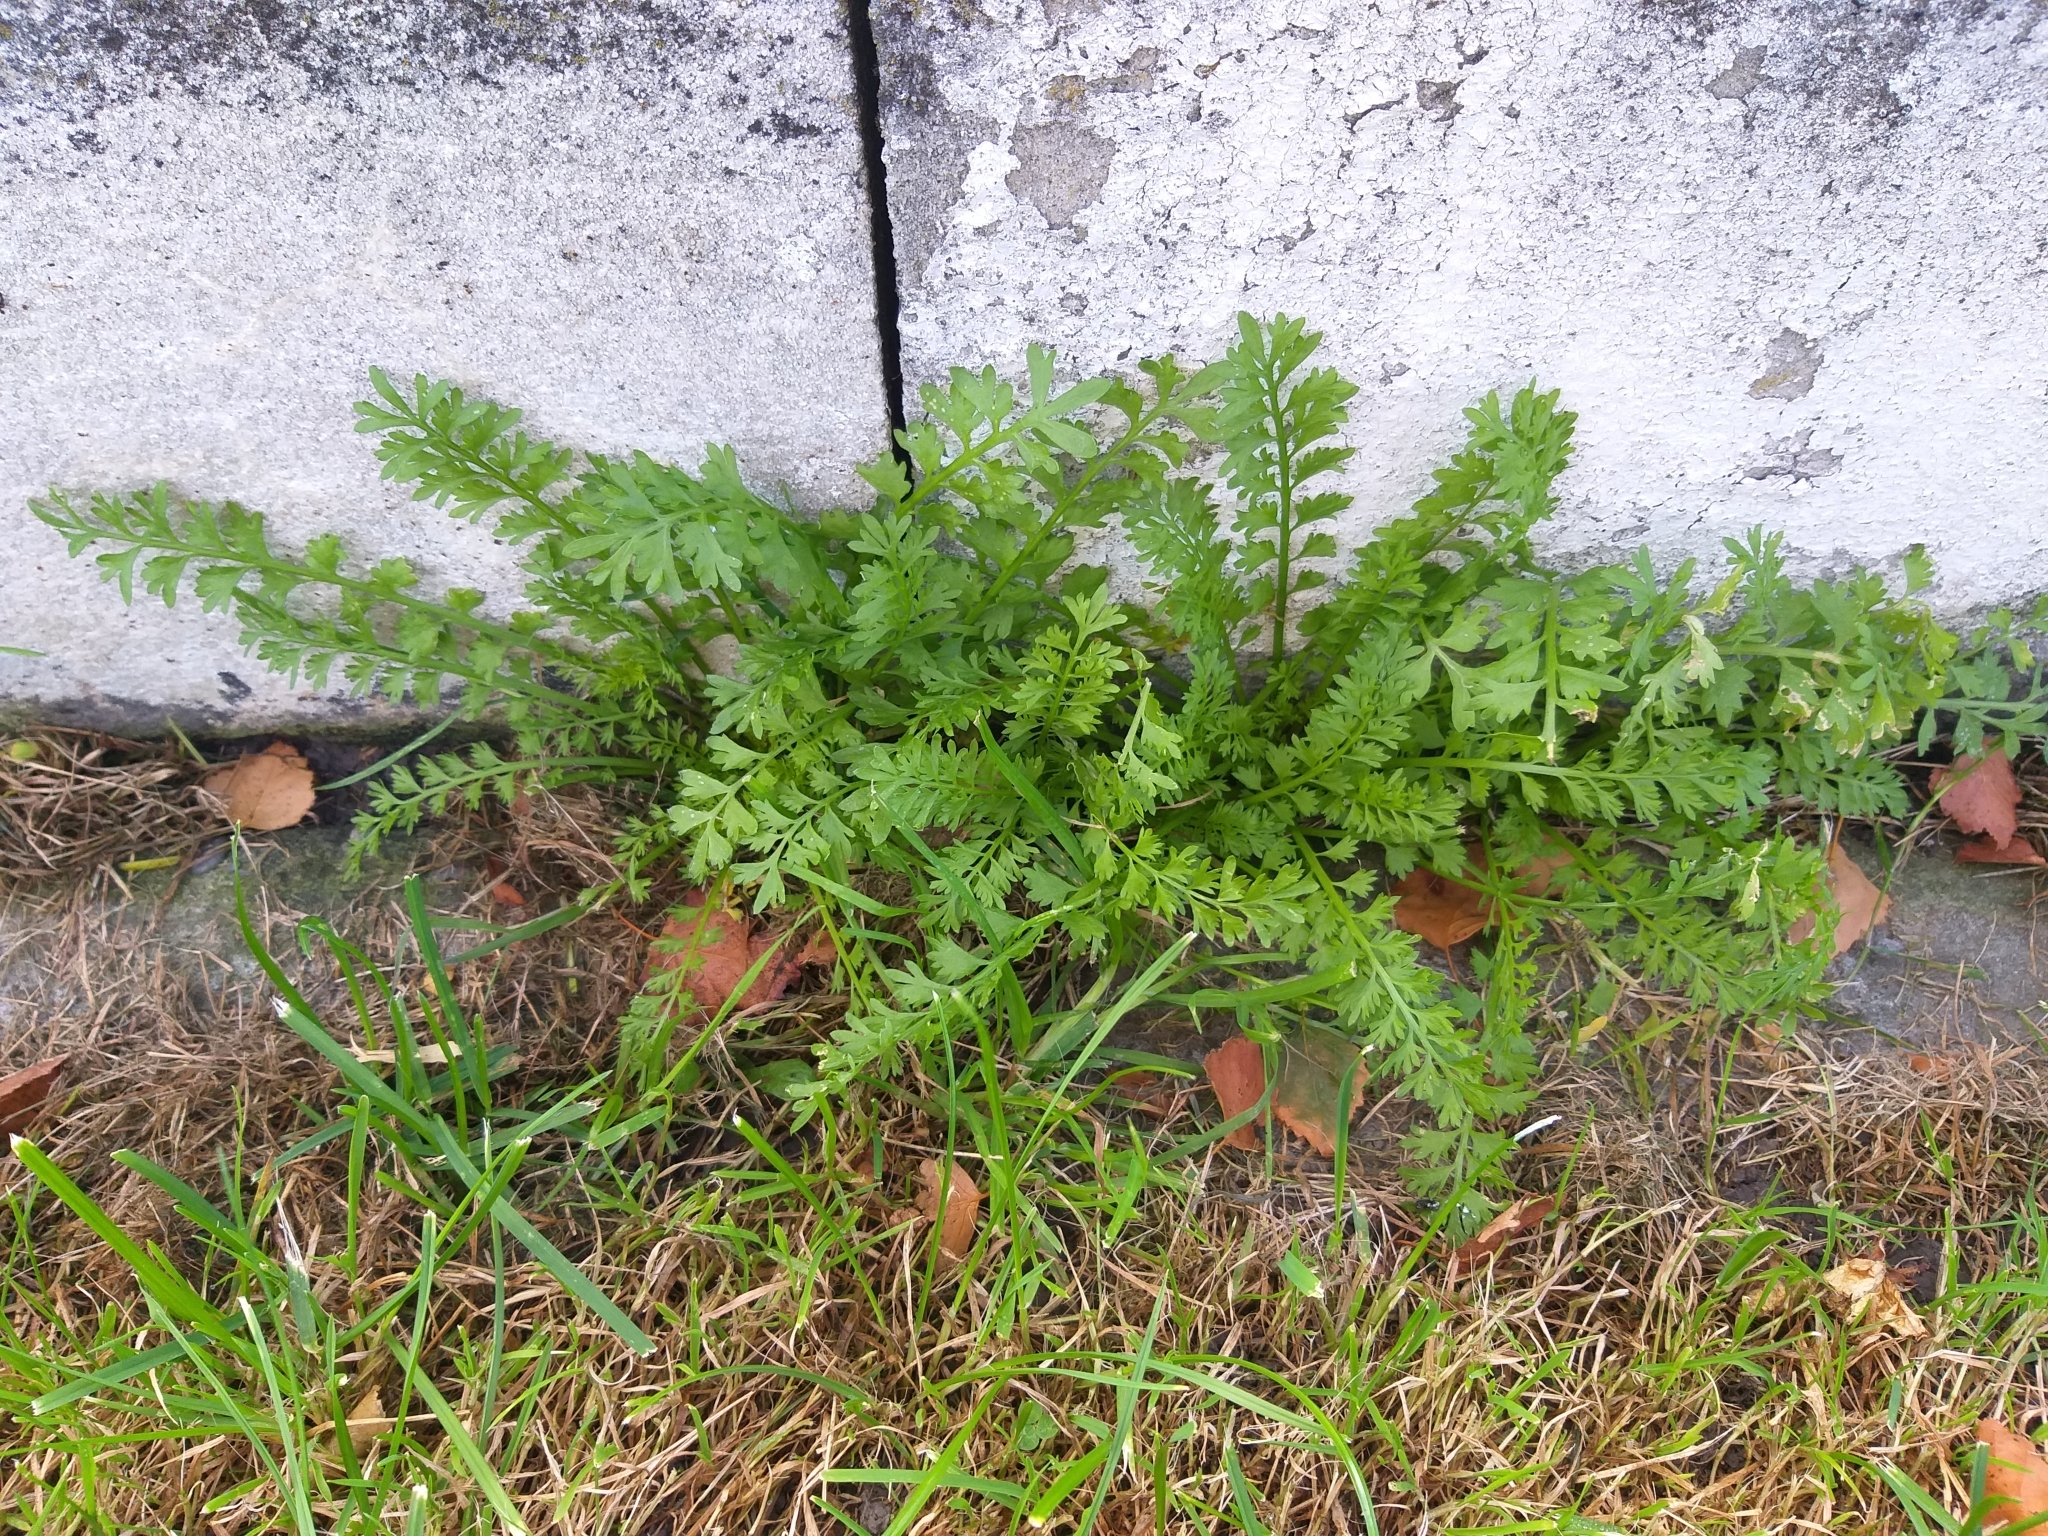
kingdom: Plantae
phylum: Tracheophyta
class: Magnoliopsida
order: Brassicales
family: Brassicaceae
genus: Lepidium
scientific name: Lepidium didymum
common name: Lesser swinecress
